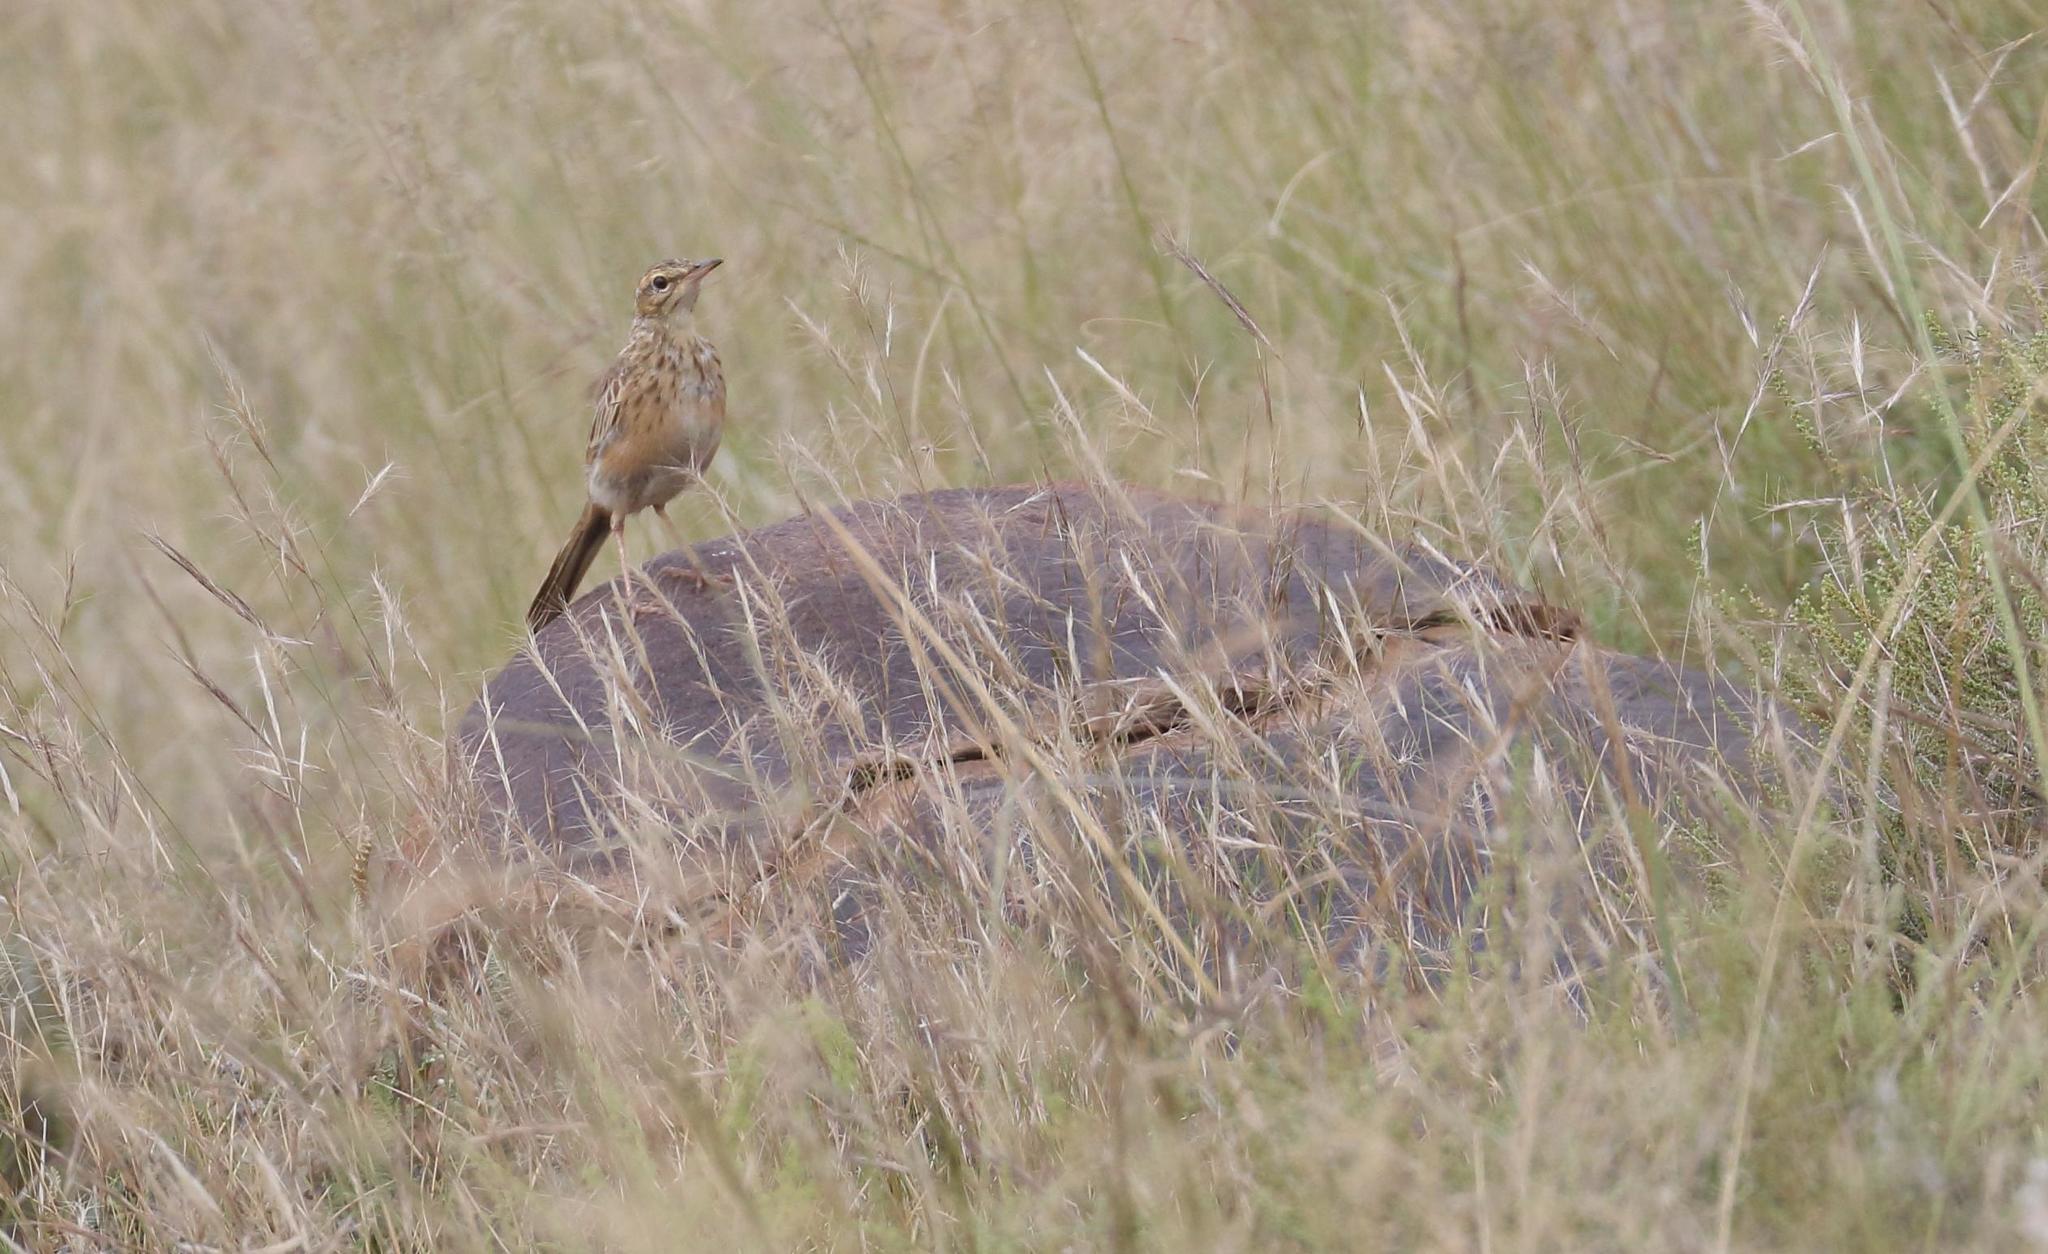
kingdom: Animalia
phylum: Chordata
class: Aves
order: Passeriformes
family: Motacillidae
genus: Anthus
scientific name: Anthus nicholsoni
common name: Nicholson's pipit
